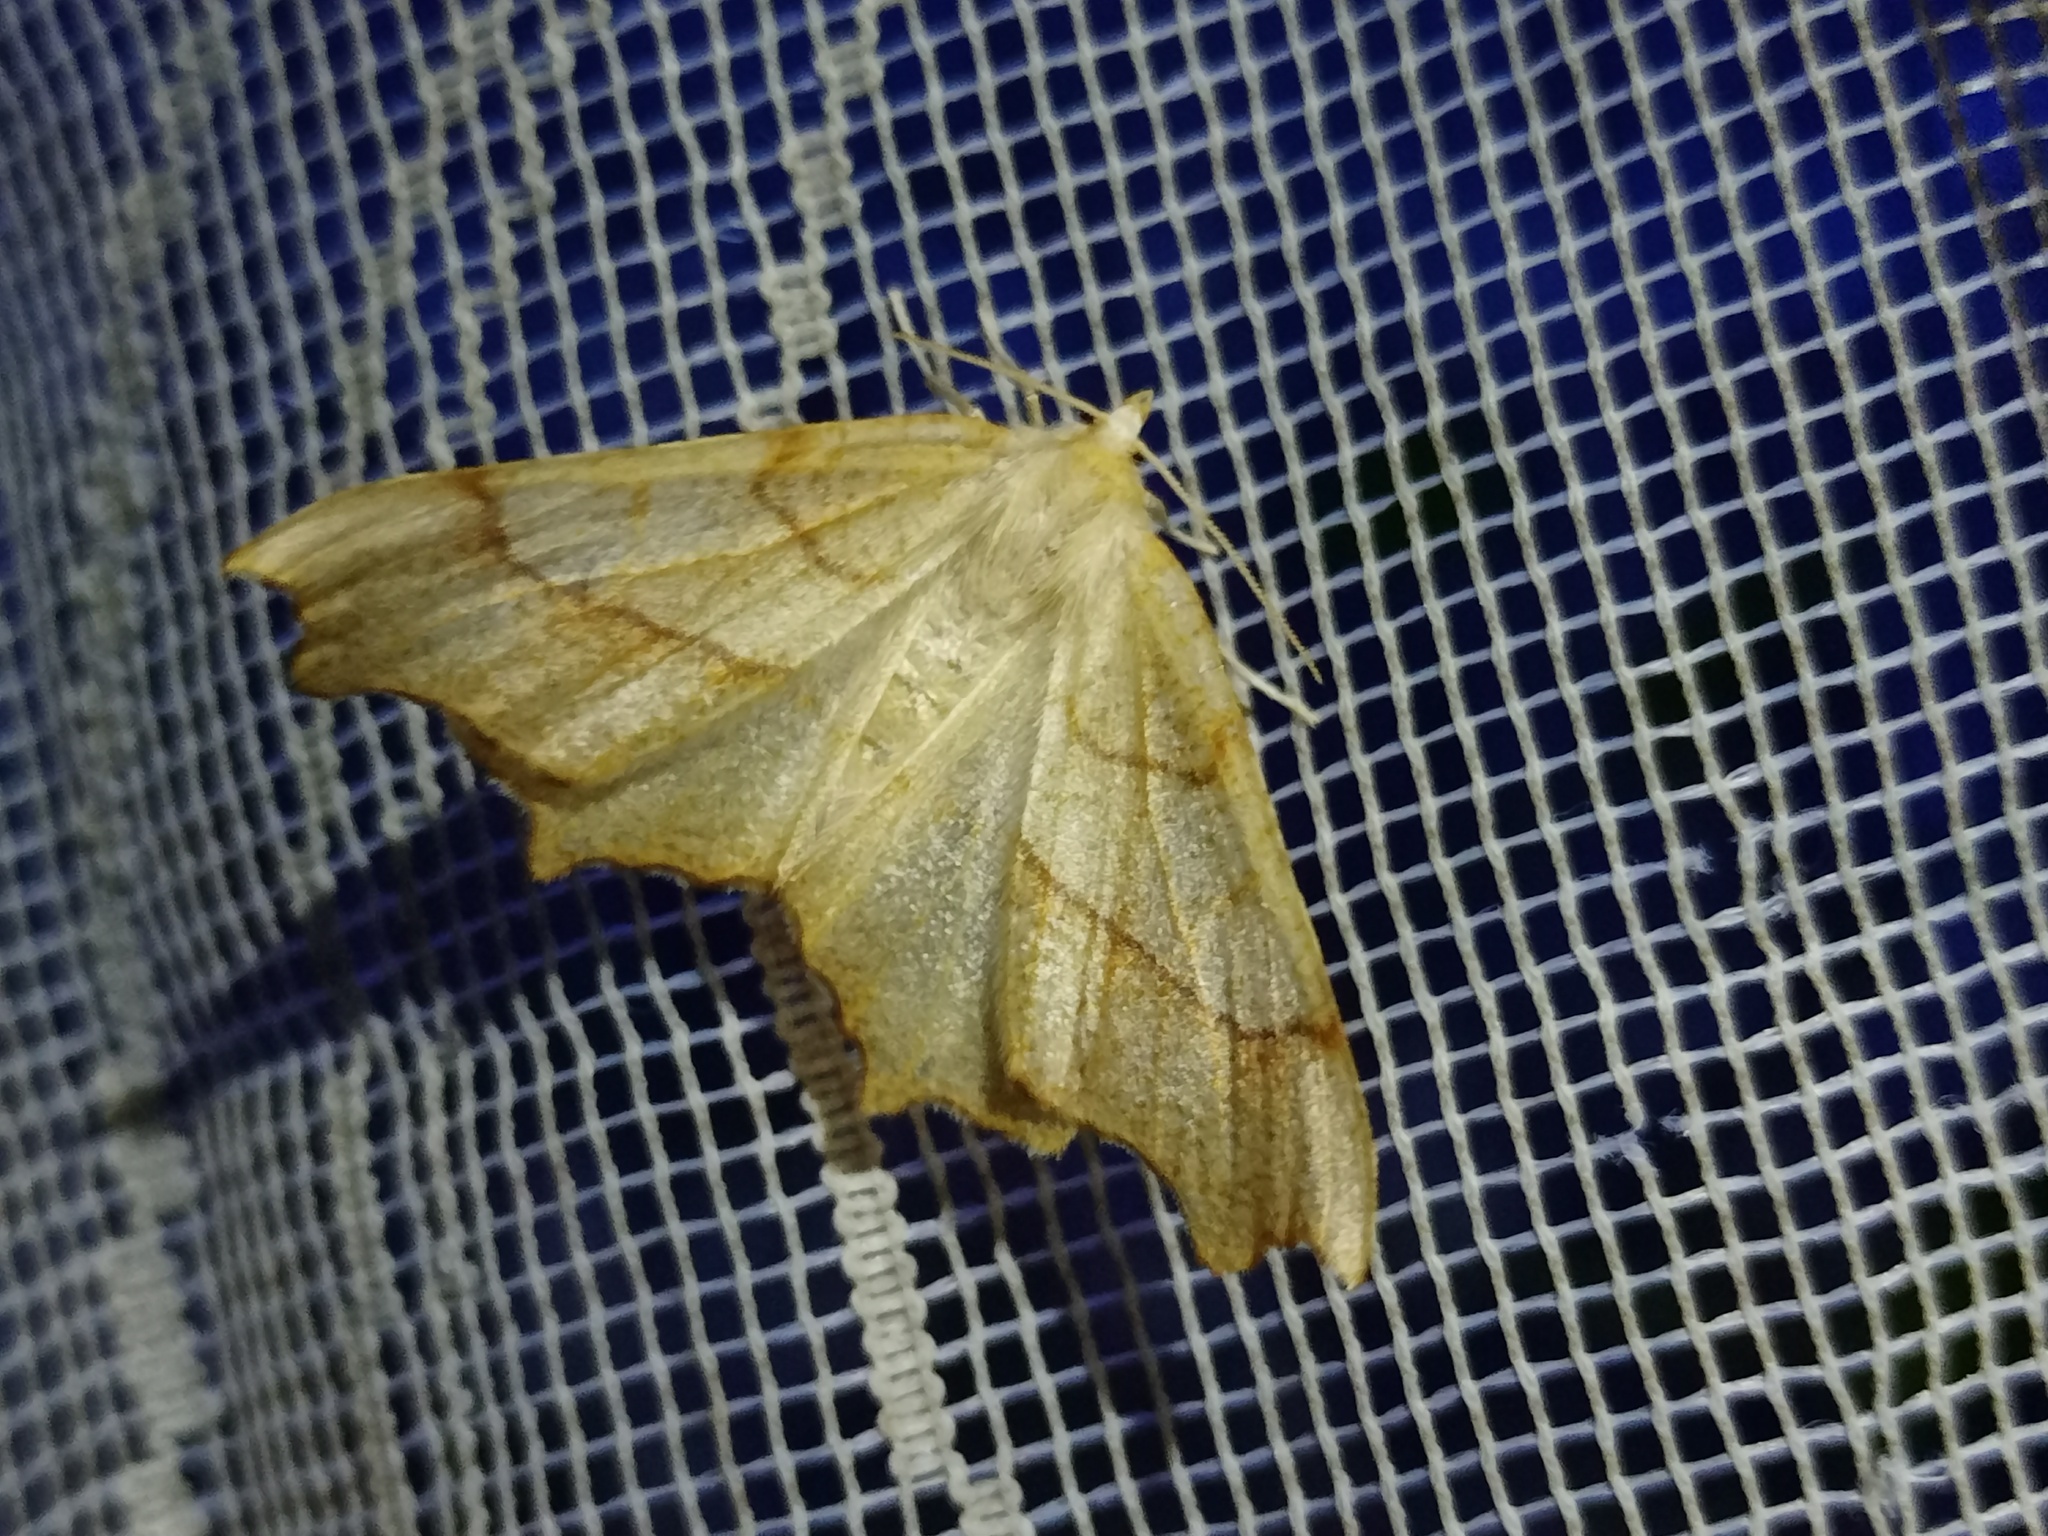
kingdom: Animalia
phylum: Arthropoda
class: Insecta
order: Lepidoptera
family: Geometridae
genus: Ennomos
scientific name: Ennomos quercinaria
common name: August thorn
